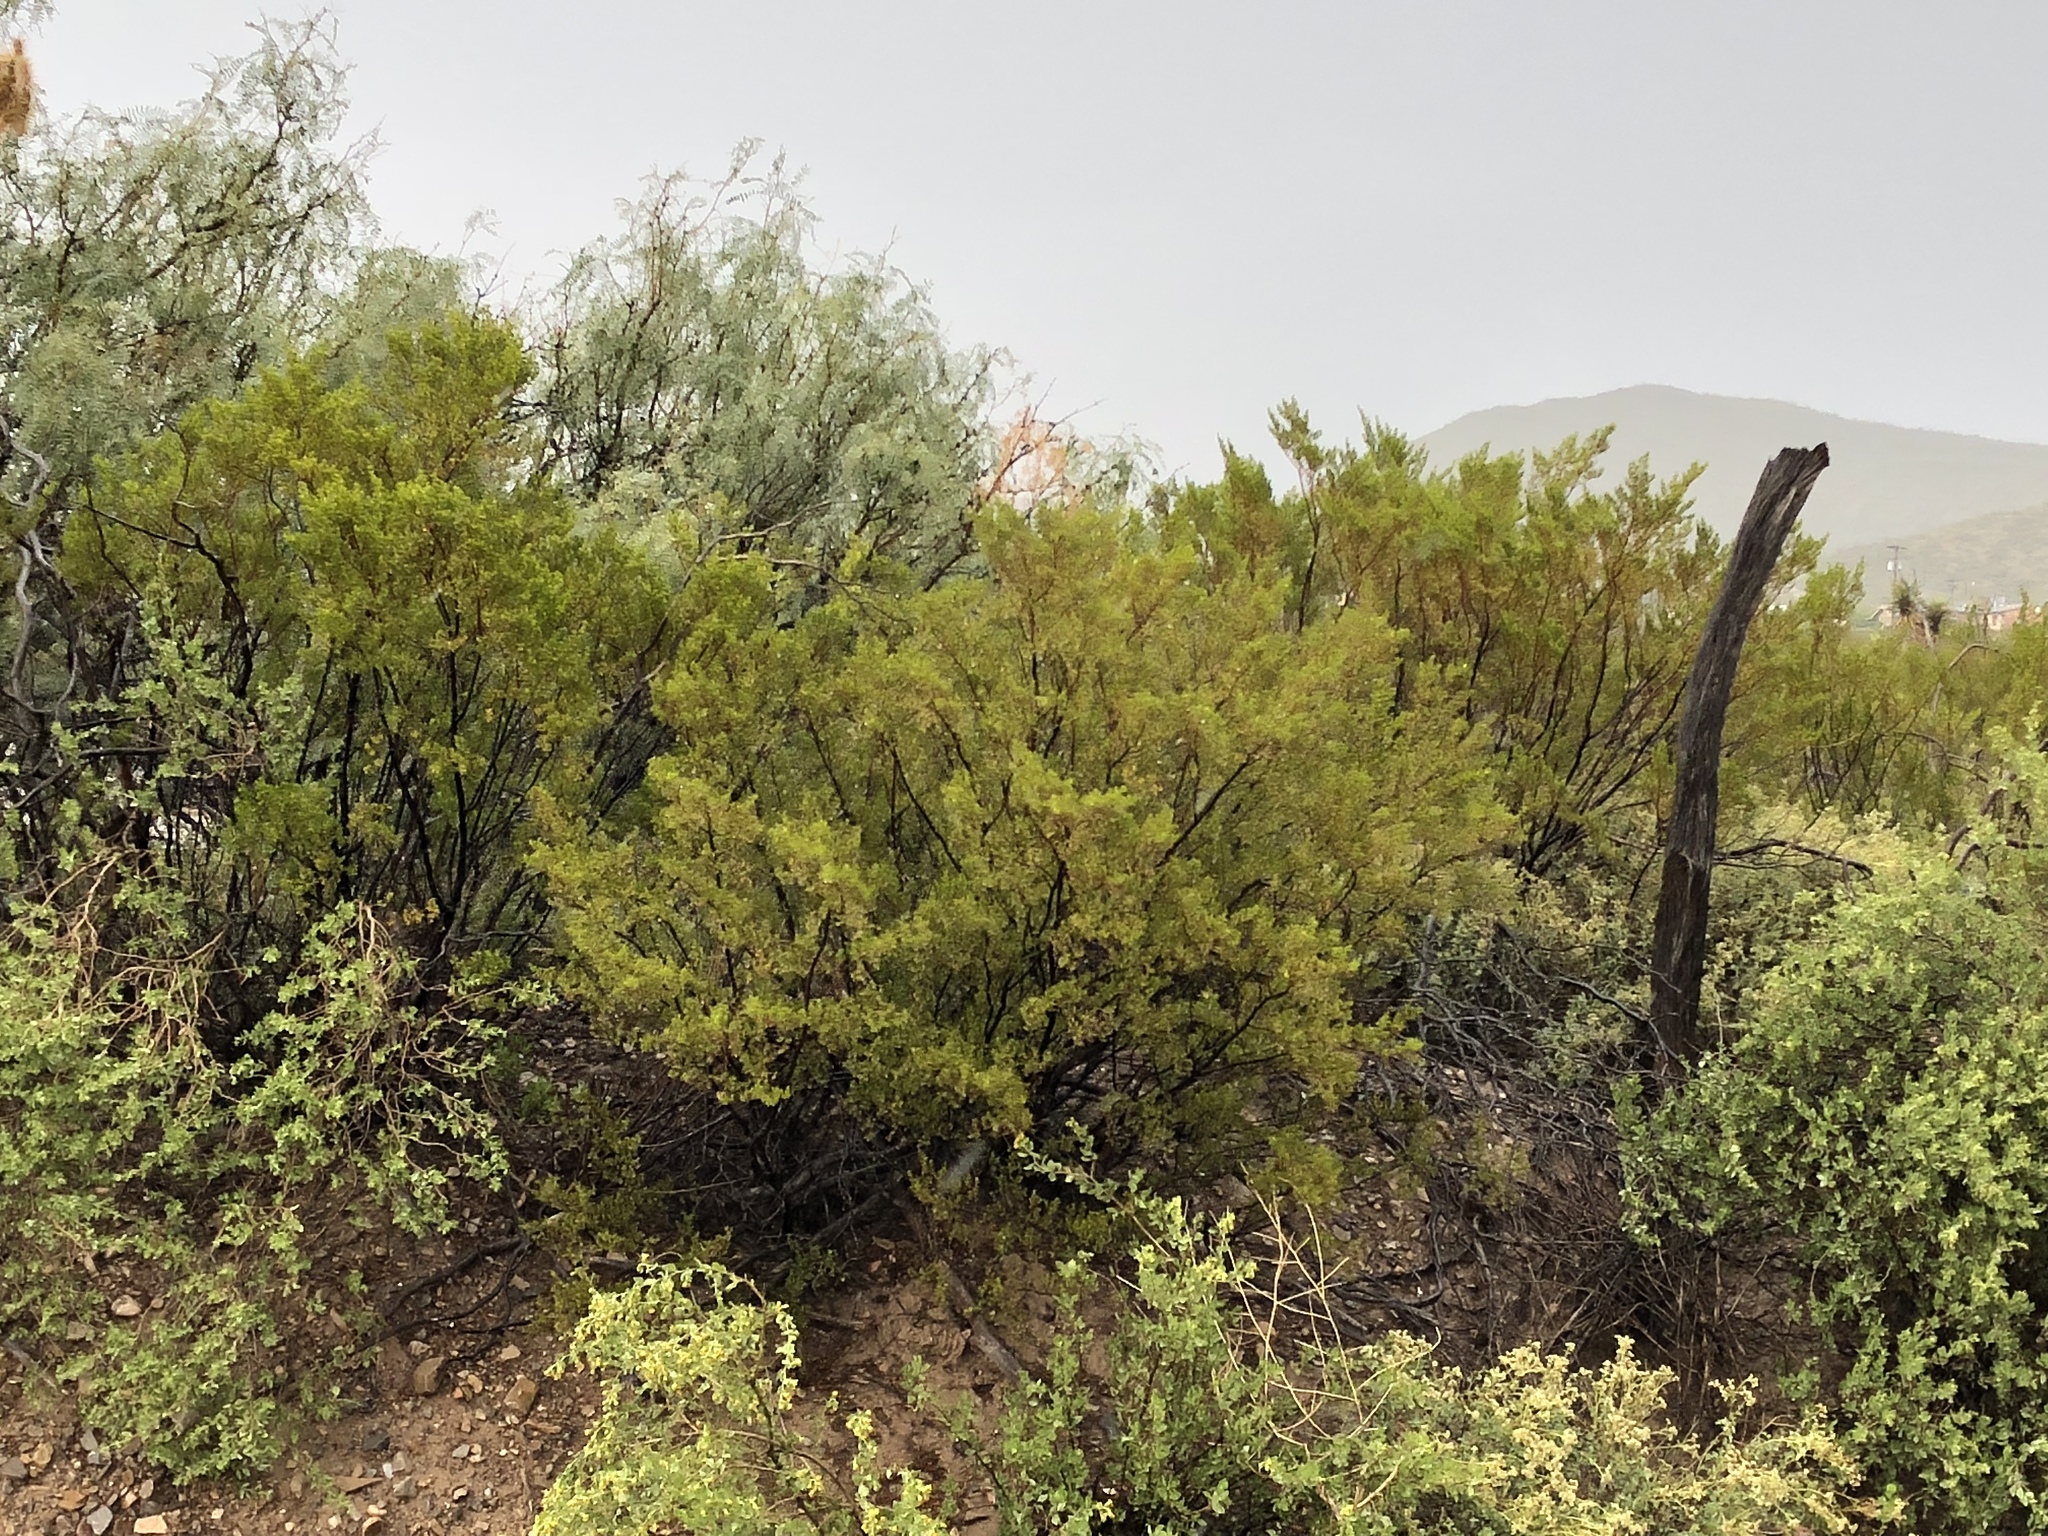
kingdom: Plantae
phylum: Tracheophyta
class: Magnoliopsida
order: Zygophyllales
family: Zygophyllaceae
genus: Larrea
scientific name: Larrea tridentata
